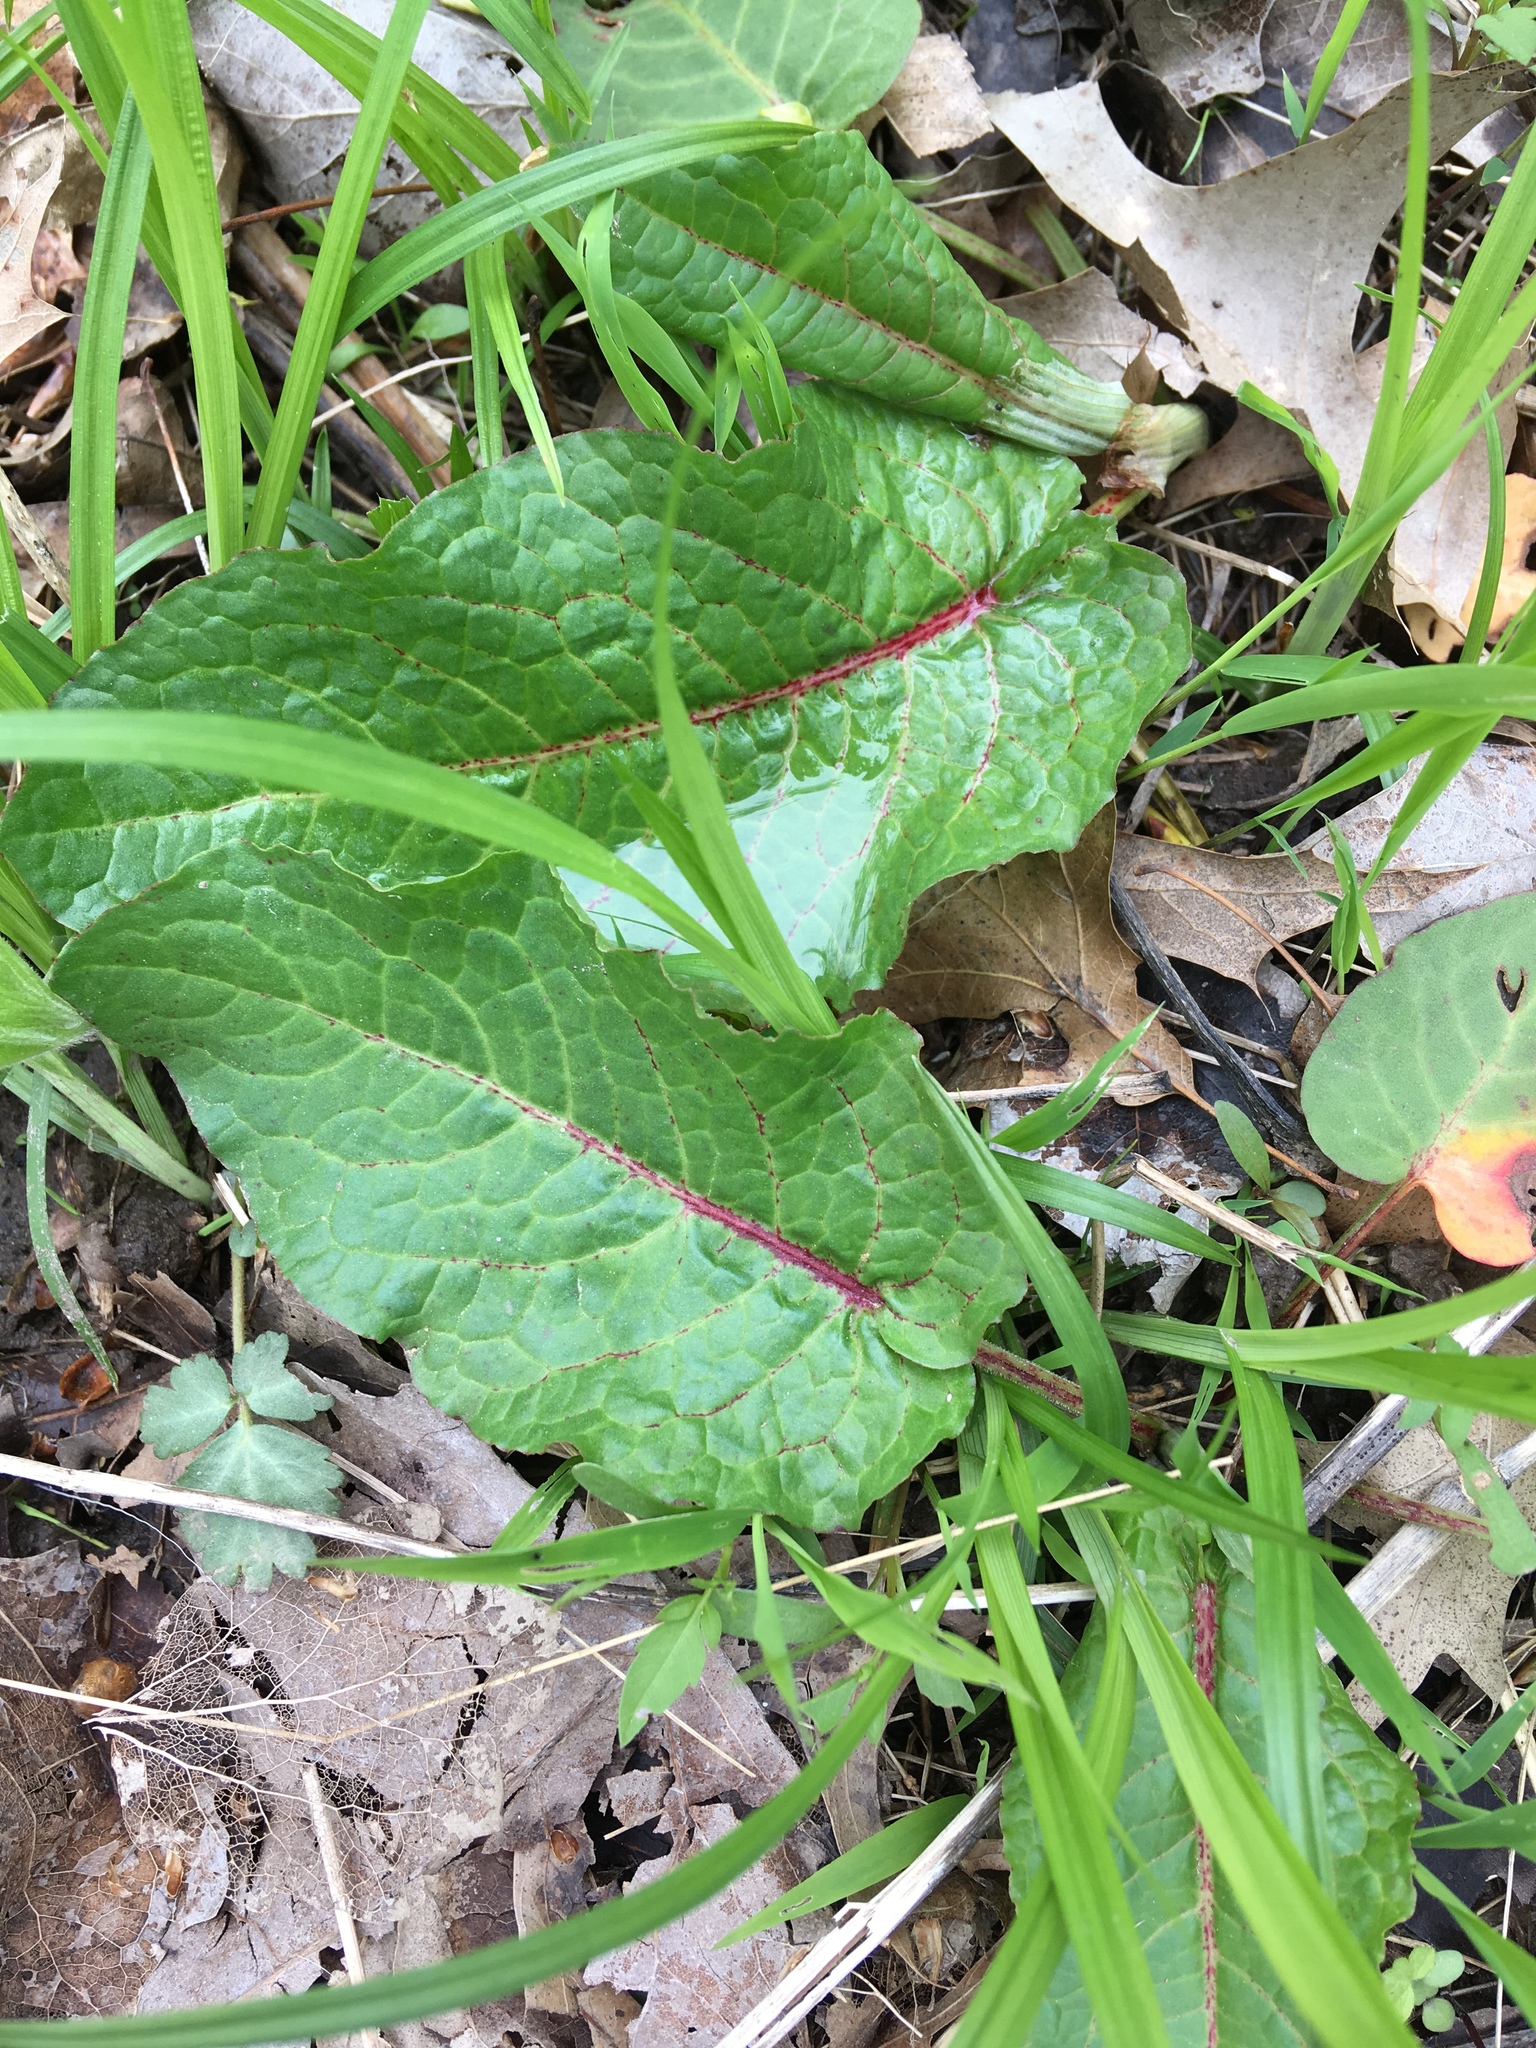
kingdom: Plantae
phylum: Tracheophyta
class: Magnoliopsida
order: Caryophyllales
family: Polygonaceae
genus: Rumex
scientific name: Rumex obtusifolius
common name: Bitter dock
